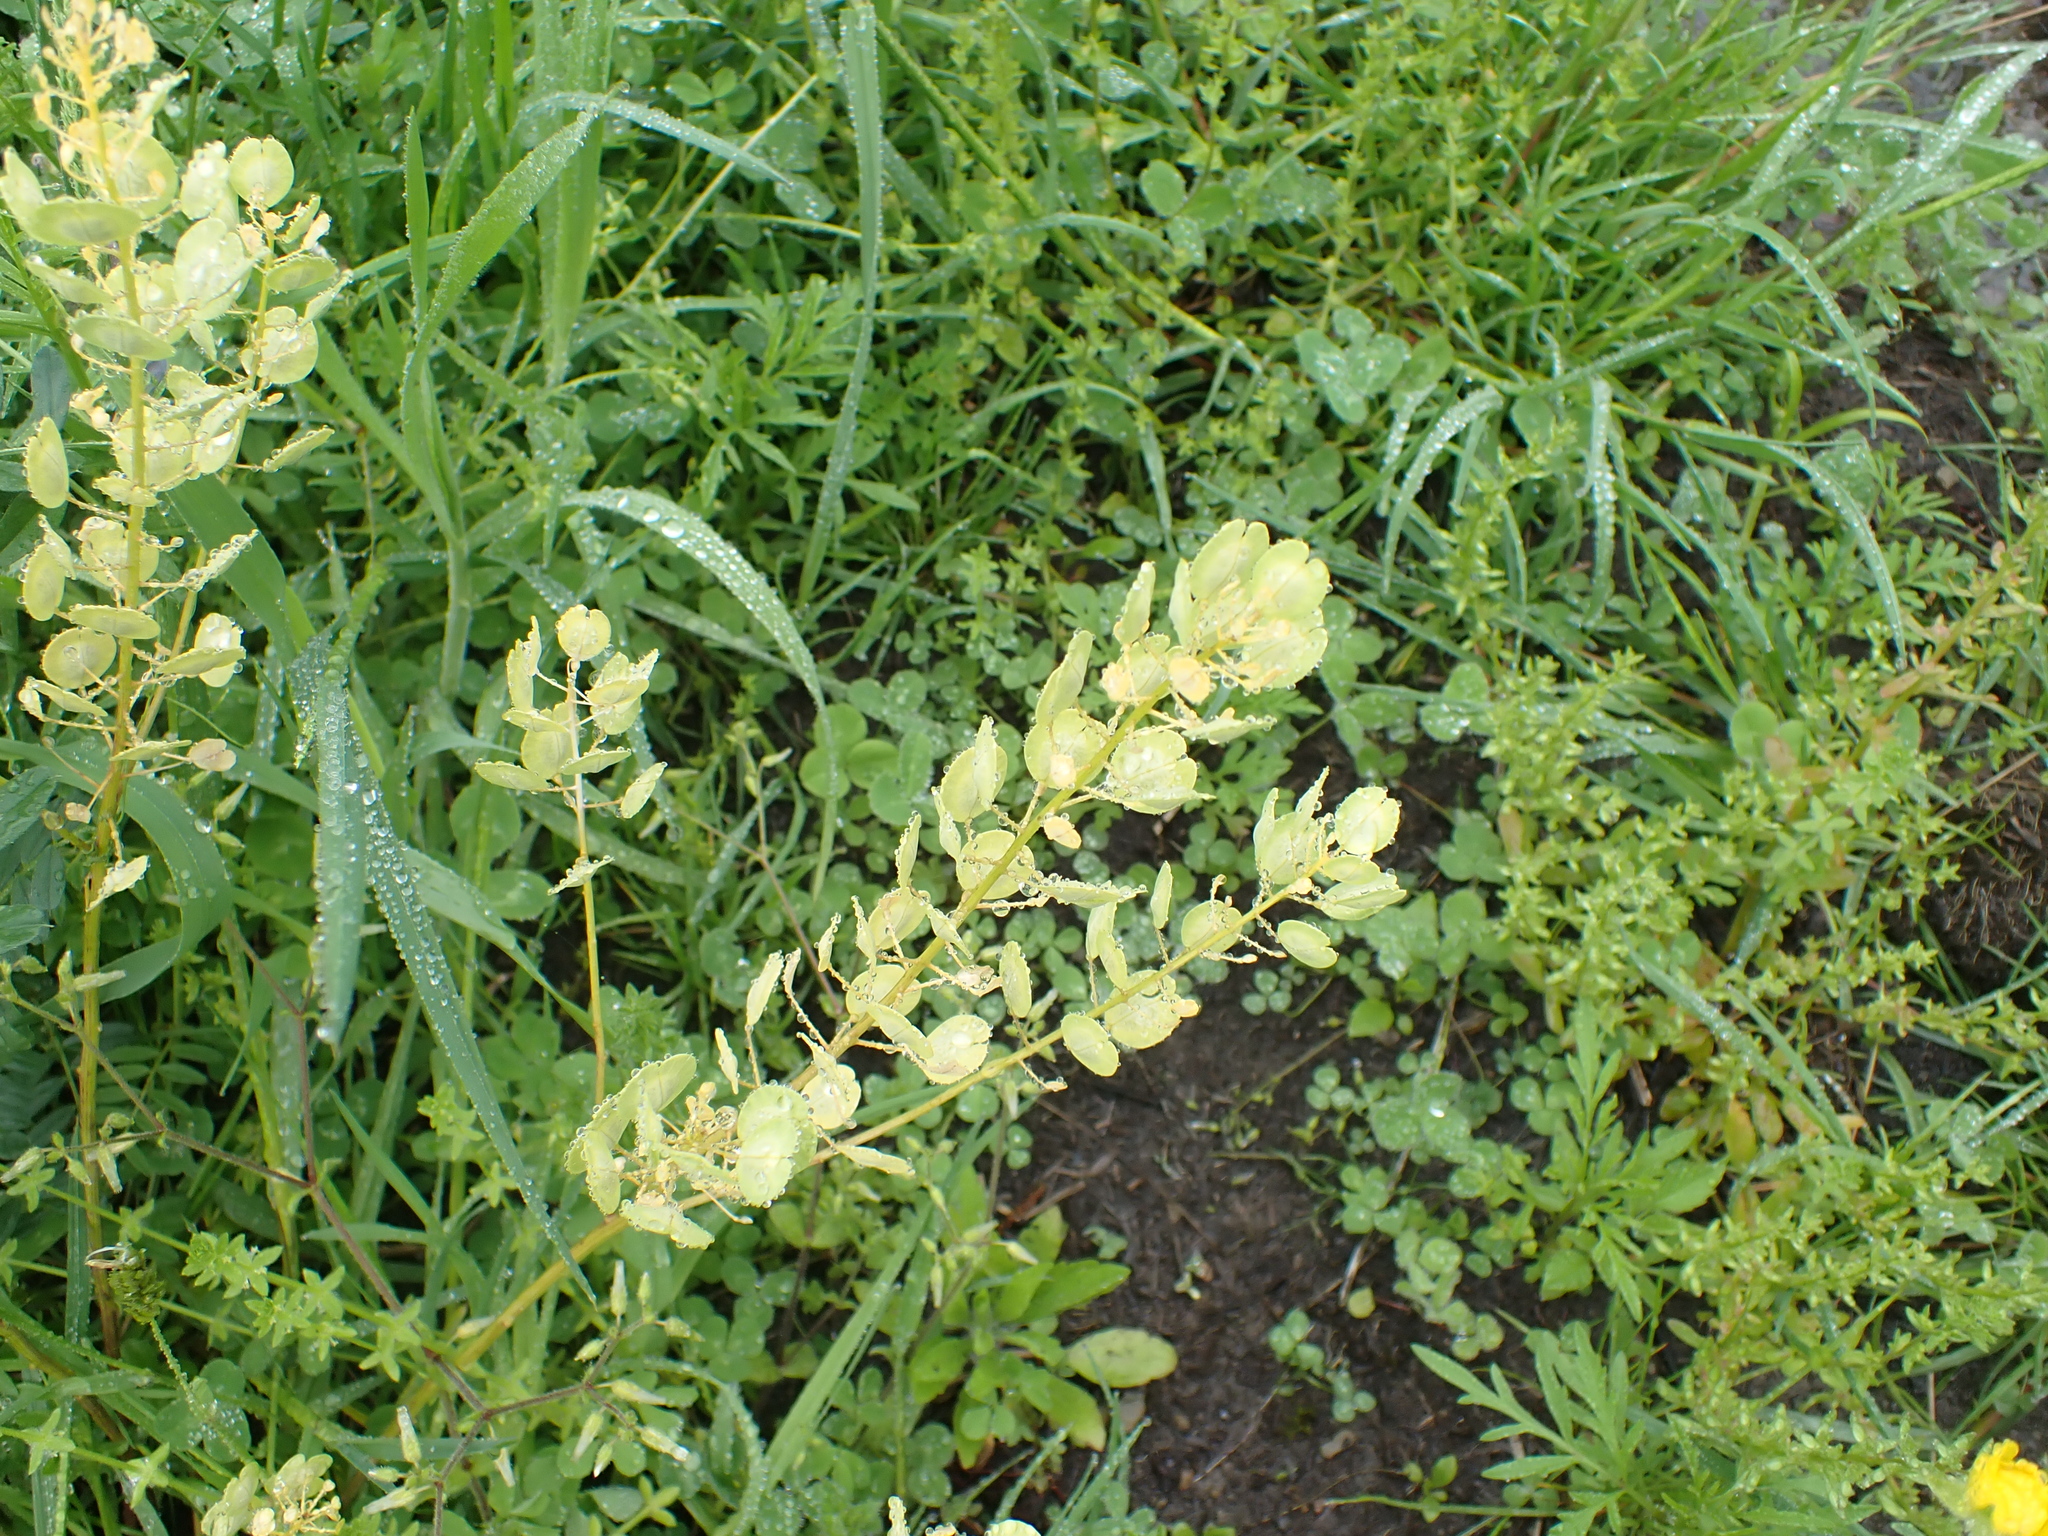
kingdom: Plantae
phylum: Tracheophyta
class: Magnoliopsida
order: Brassicales
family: Brassicaceae
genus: Thlaspi
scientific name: Thlaspi arvense
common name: Field pennycress
